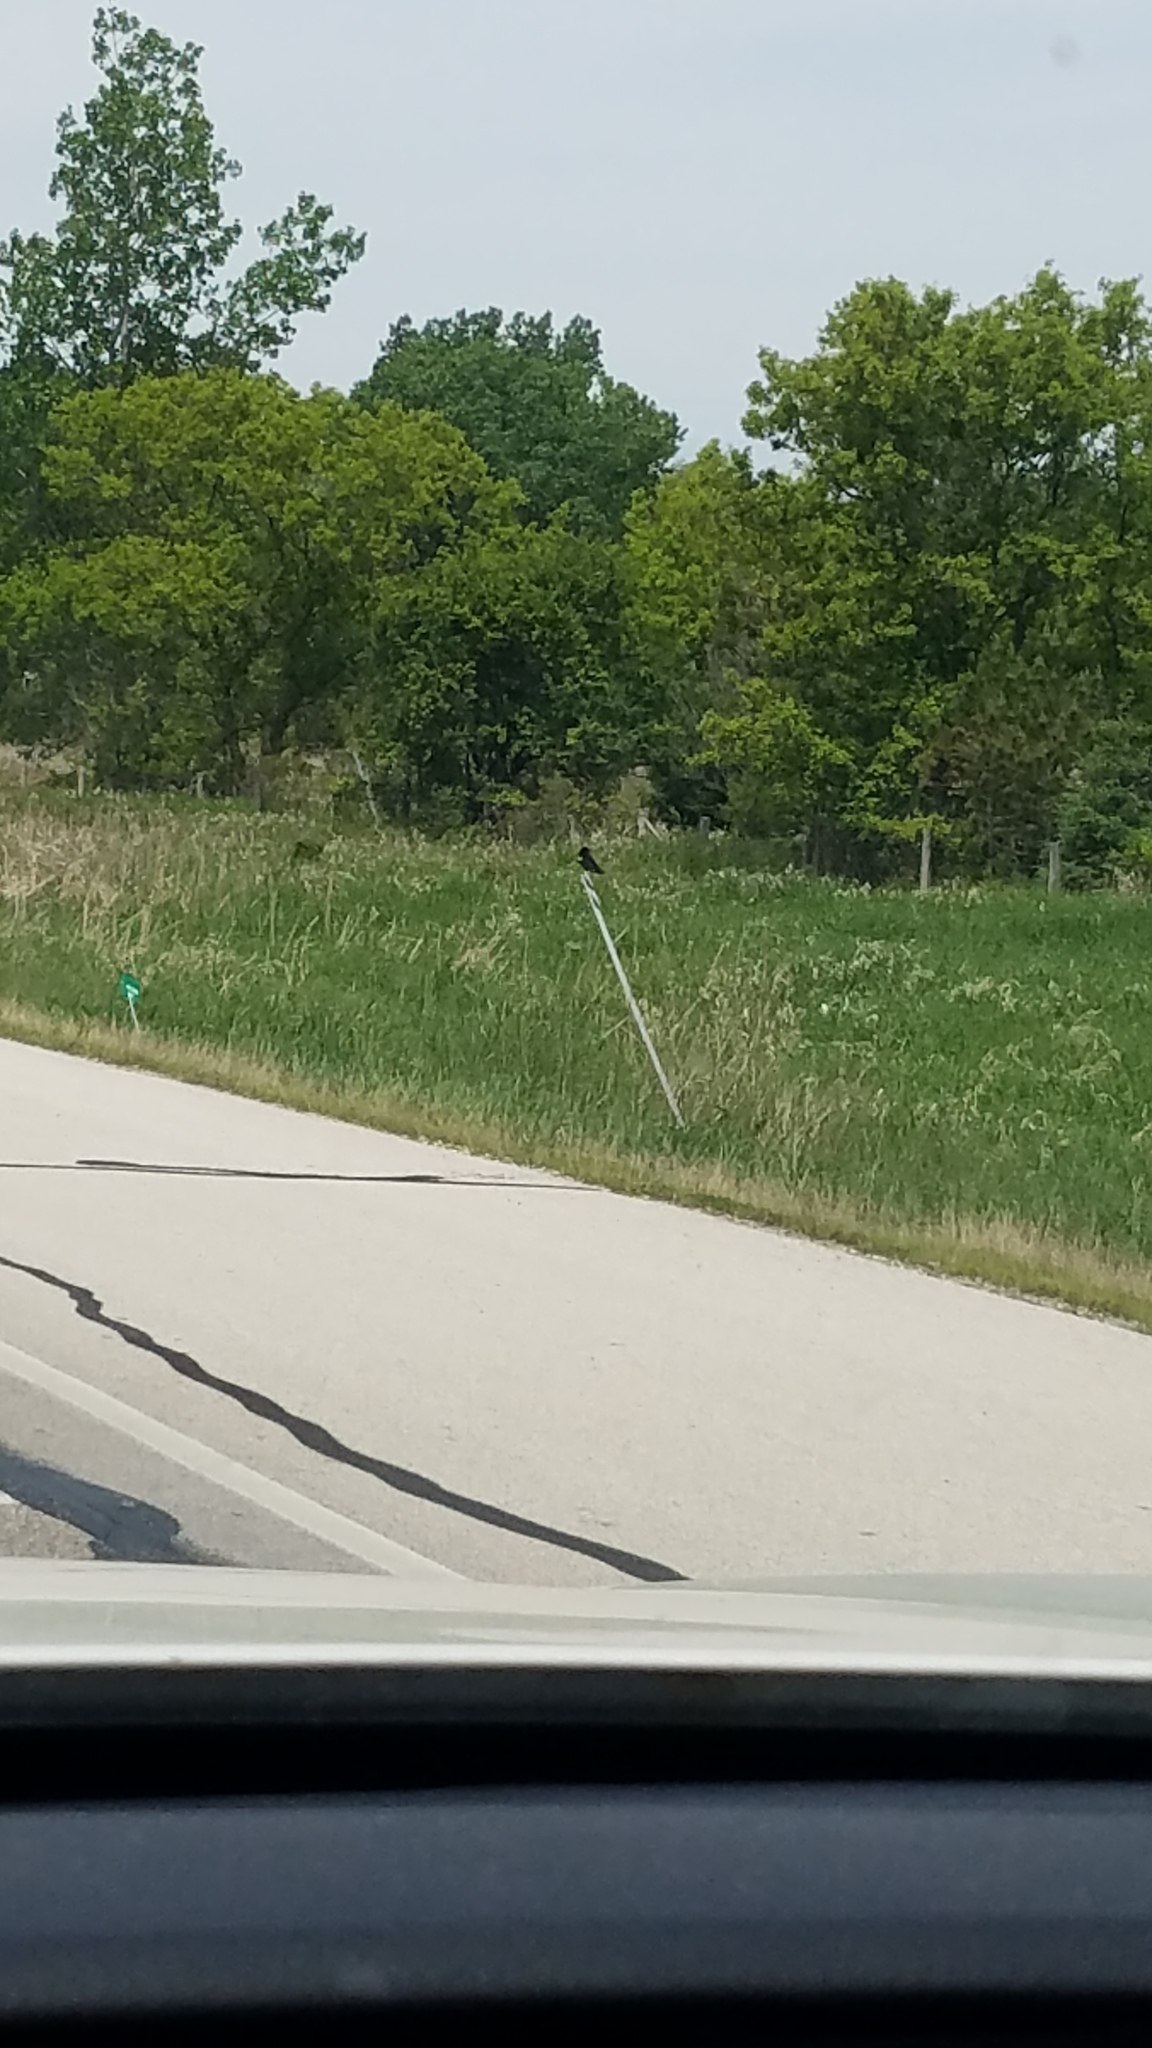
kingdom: Animalia
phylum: Chordata
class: Aves
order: Passeriformes
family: Icteridae
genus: Agelaius
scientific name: Agelaius phoeniceus
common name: Red-winged blackbird
